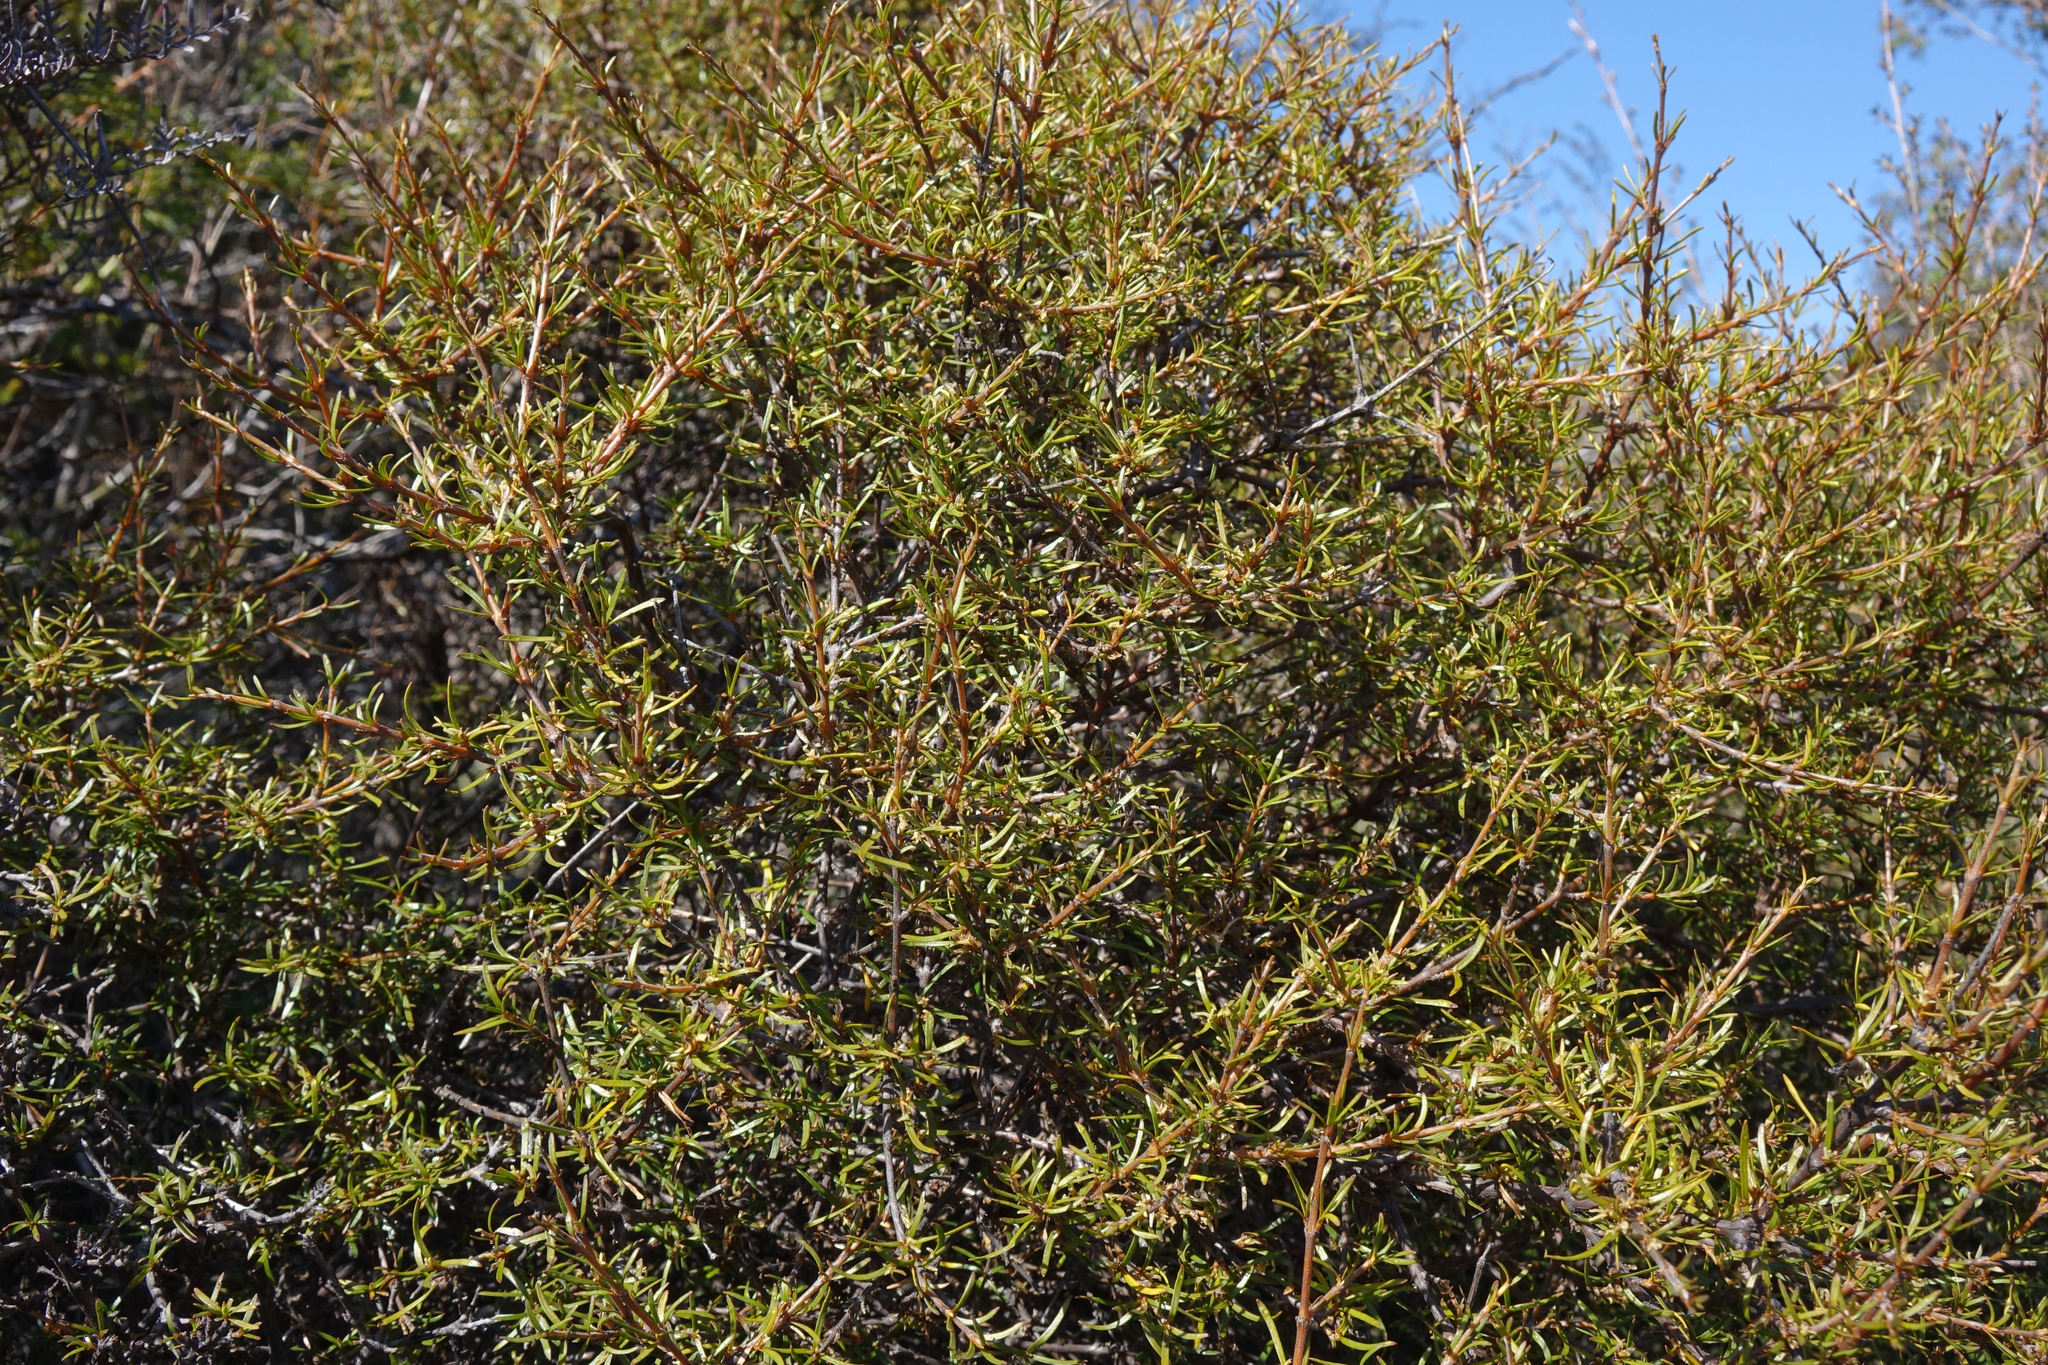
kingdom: Plantae
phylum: Tracheophyta
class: Magnoliopsida
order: Gentianales
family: Rubiaceae
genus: Coprosma
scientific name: Coprosma rugosa
